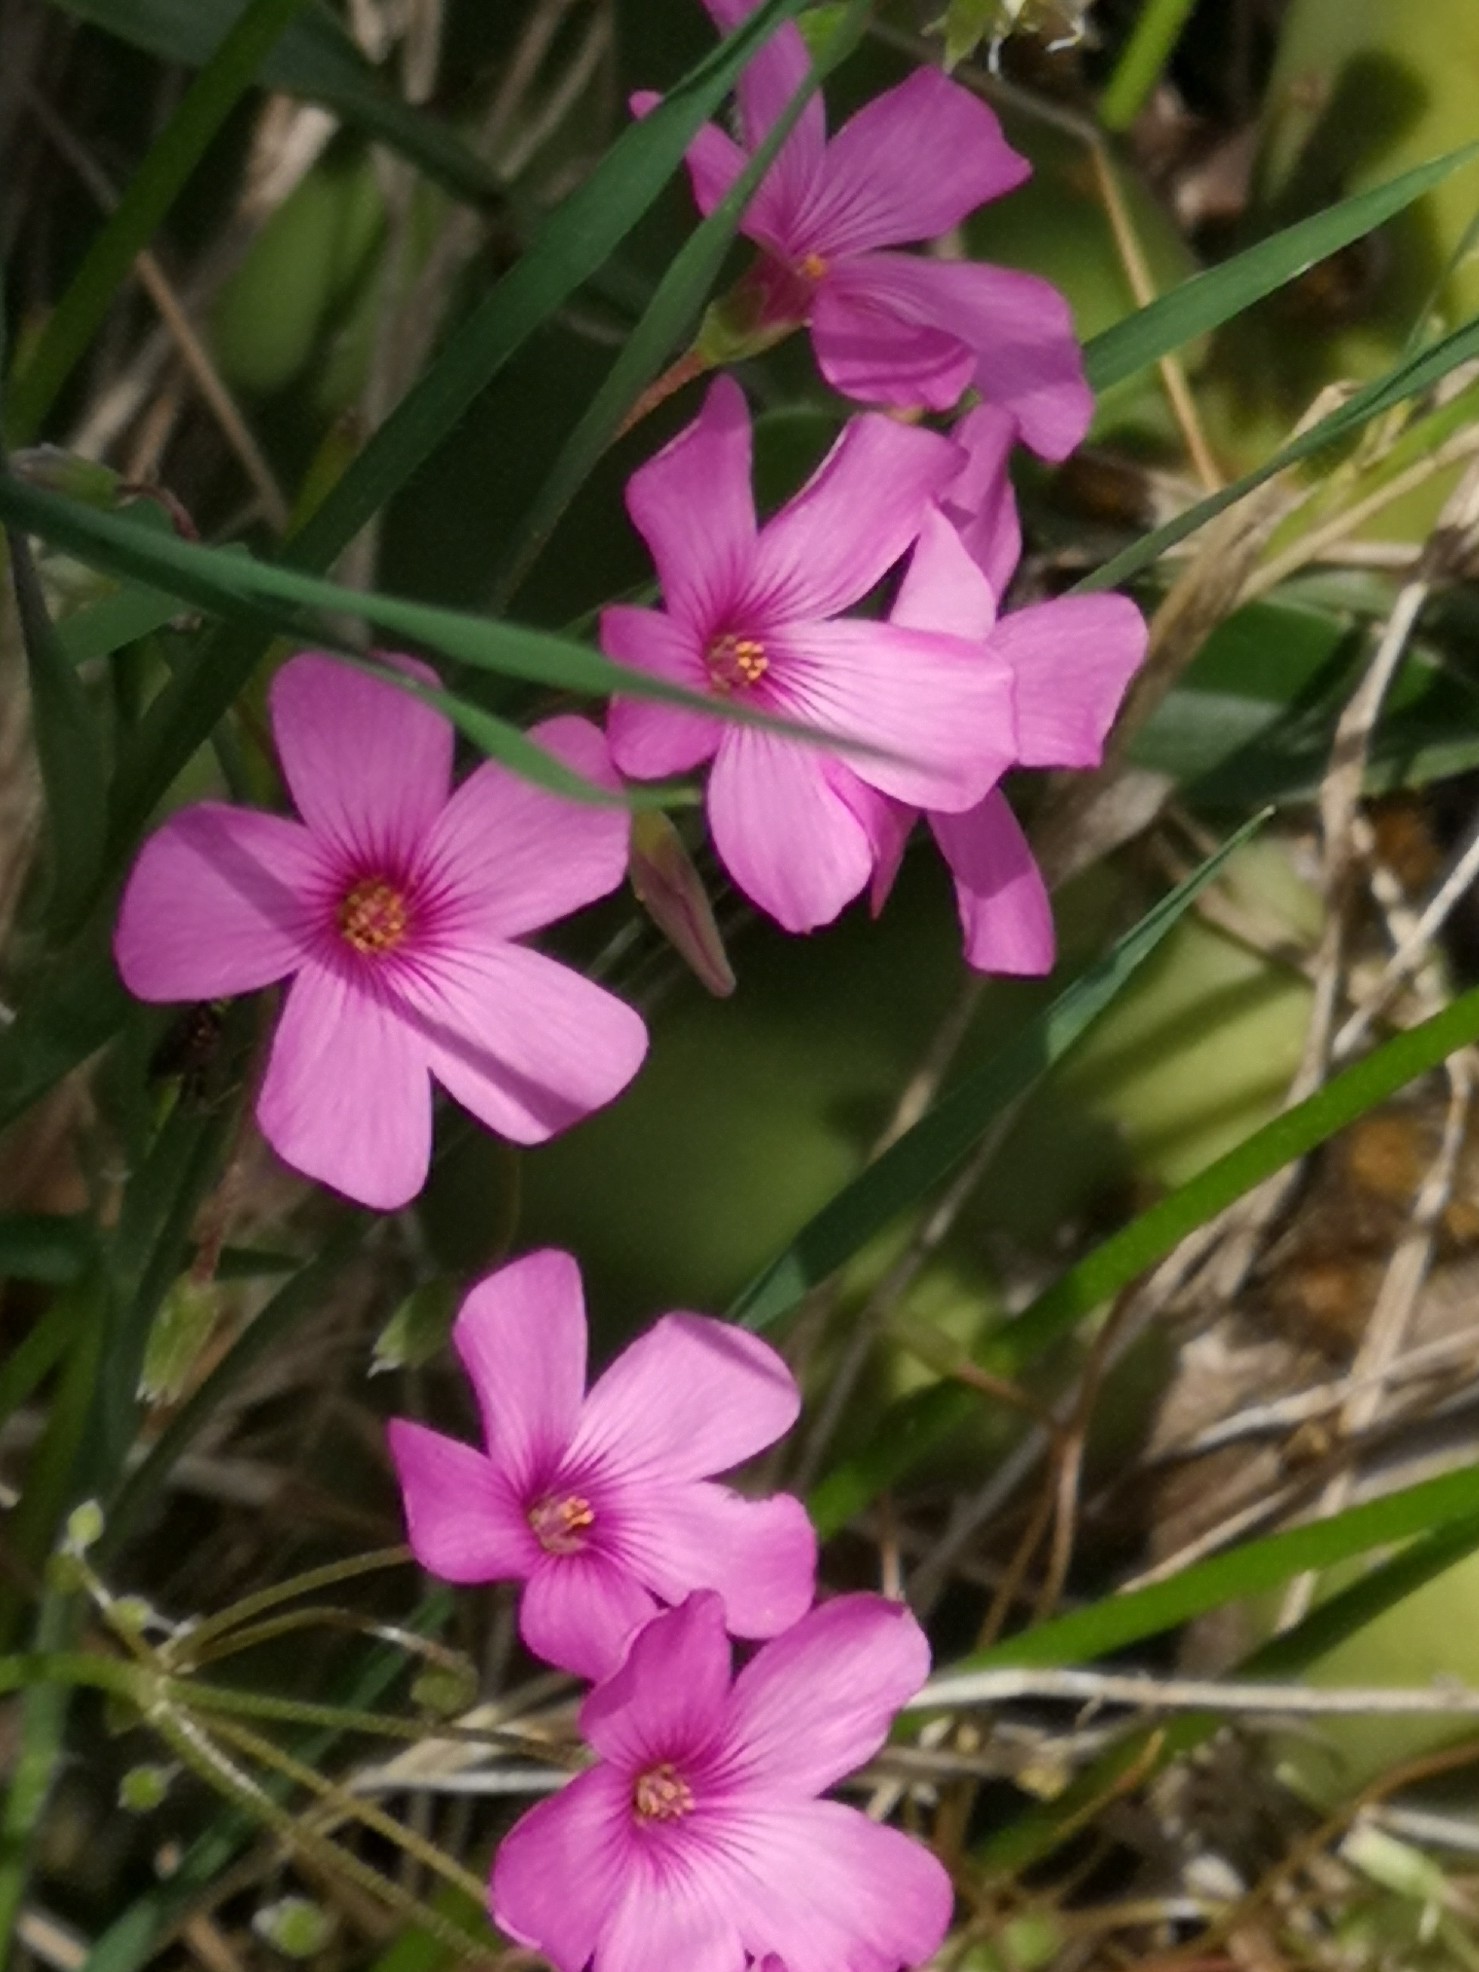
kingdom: Plantae
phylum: Tracheophyta
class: Magnoliopsida
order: Oxalidales
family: Oxalidaceae
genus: Oxalis
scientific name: Oxalis articulata
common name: Pink-sorrel
